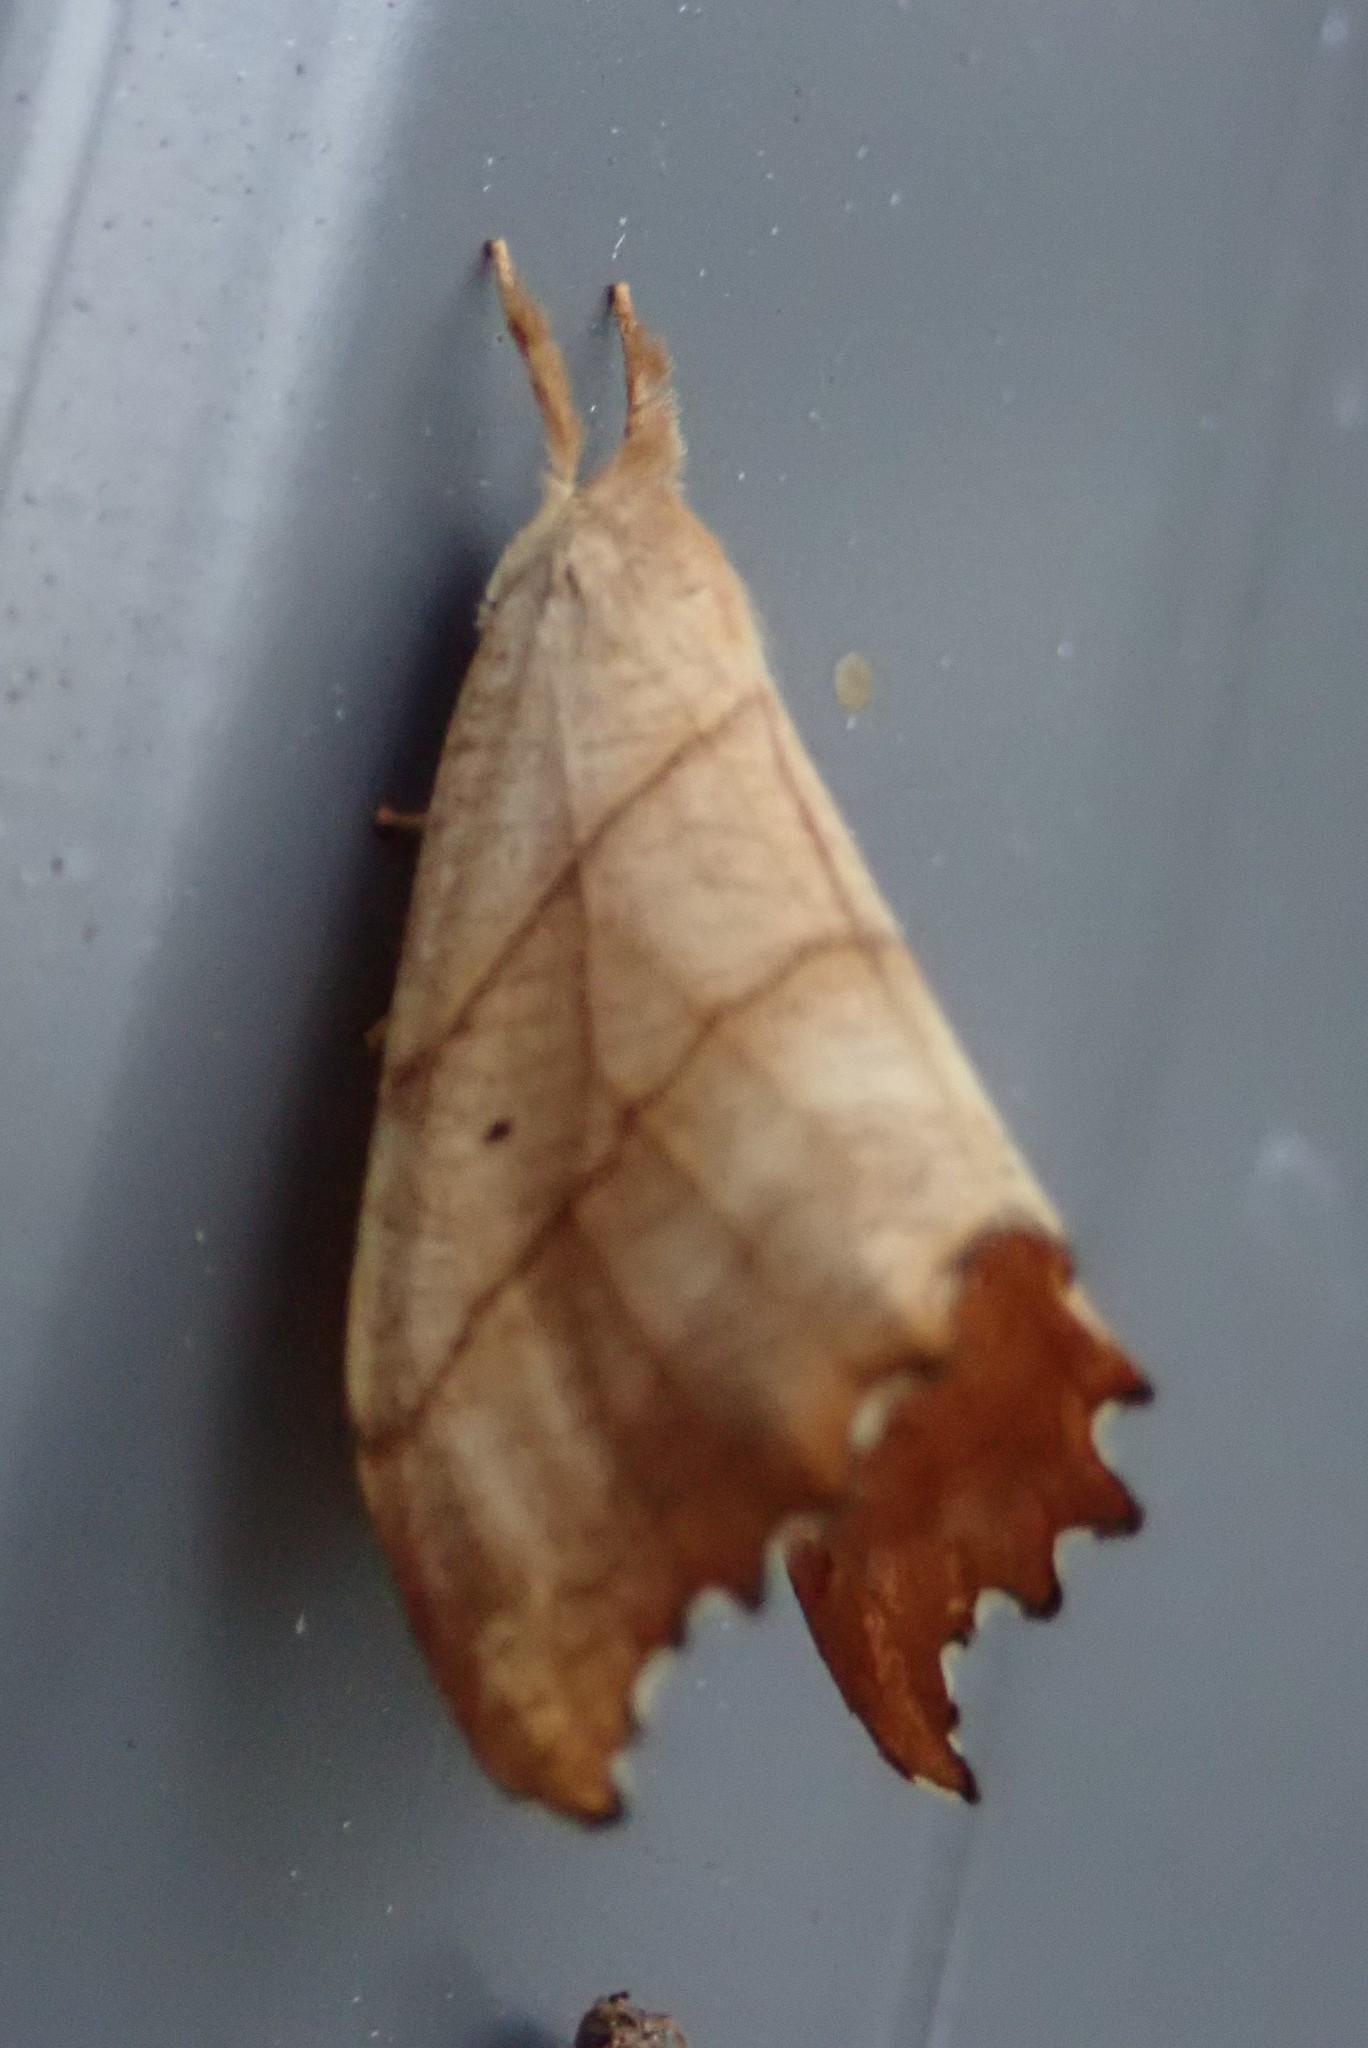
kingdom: Animalia
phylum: Arthropoda
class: Insecta
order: Lepidoptera
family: Drepanidae
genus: Falcaria
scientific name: Falcaria bilineata
